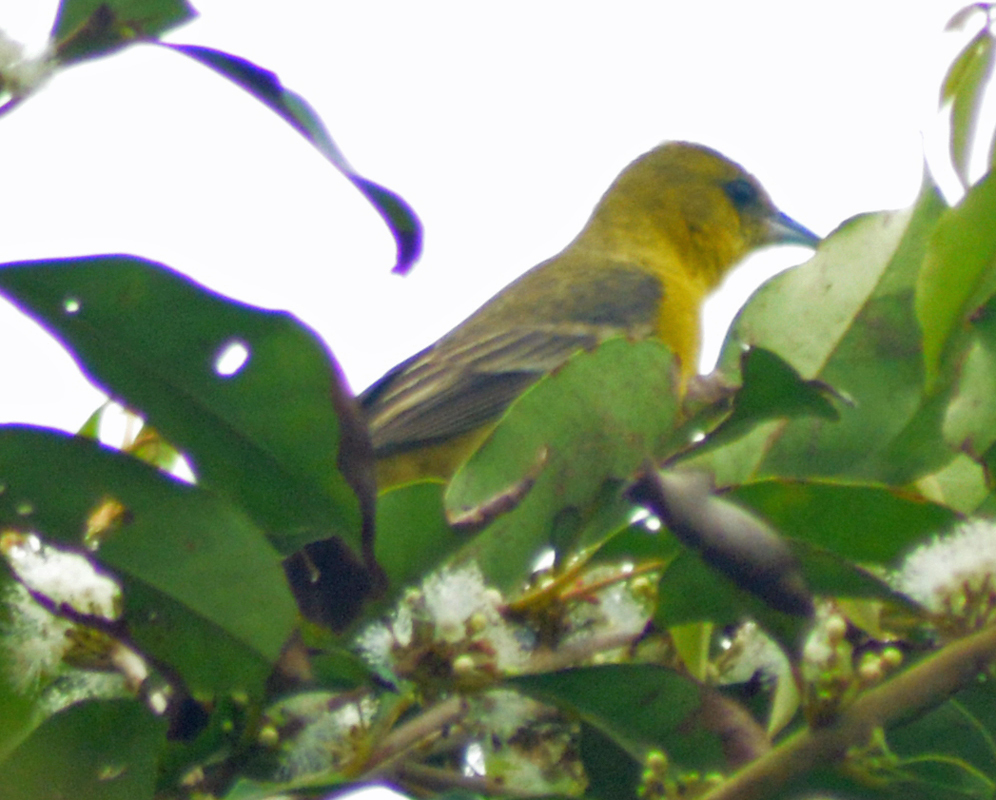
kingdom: Animalia
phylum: Chordata
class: Aves
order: Passeriformes
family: Icteridae
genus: Icterus
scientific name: Icterus spurius
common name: Orchard oriole
